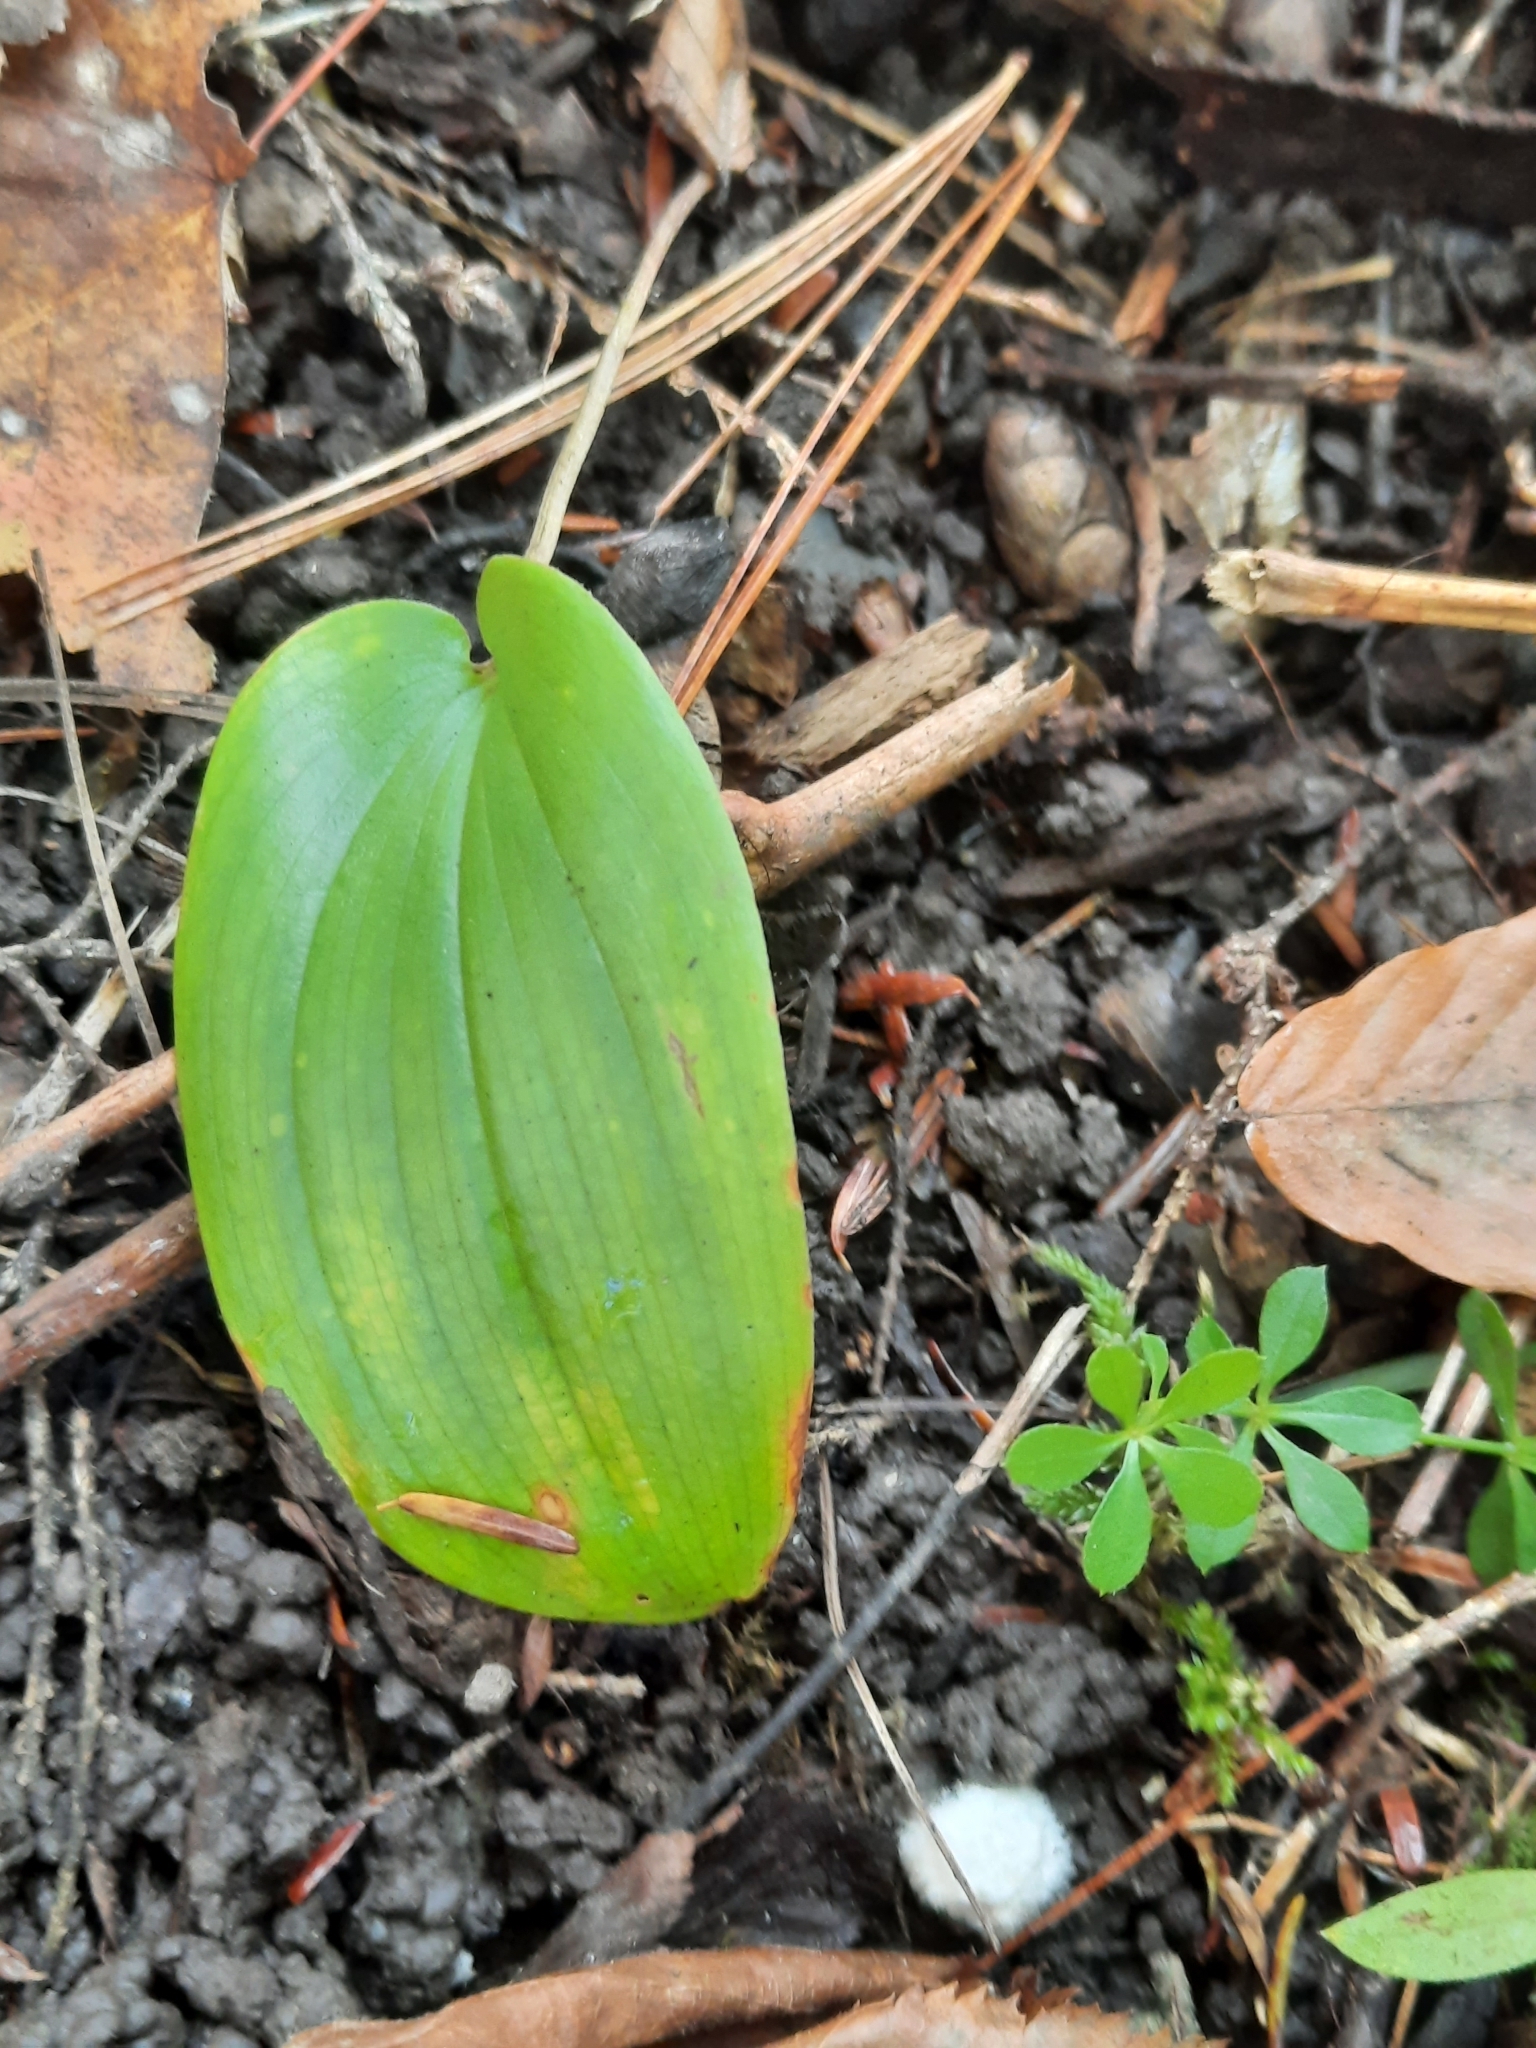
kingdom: Plantae
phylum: Tracheophyta
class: Liliopsida
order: Asparagales
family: Asparagaceae
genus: Maianthemum
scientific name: Maianthemum canadense
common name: False lily-of-the-valley
